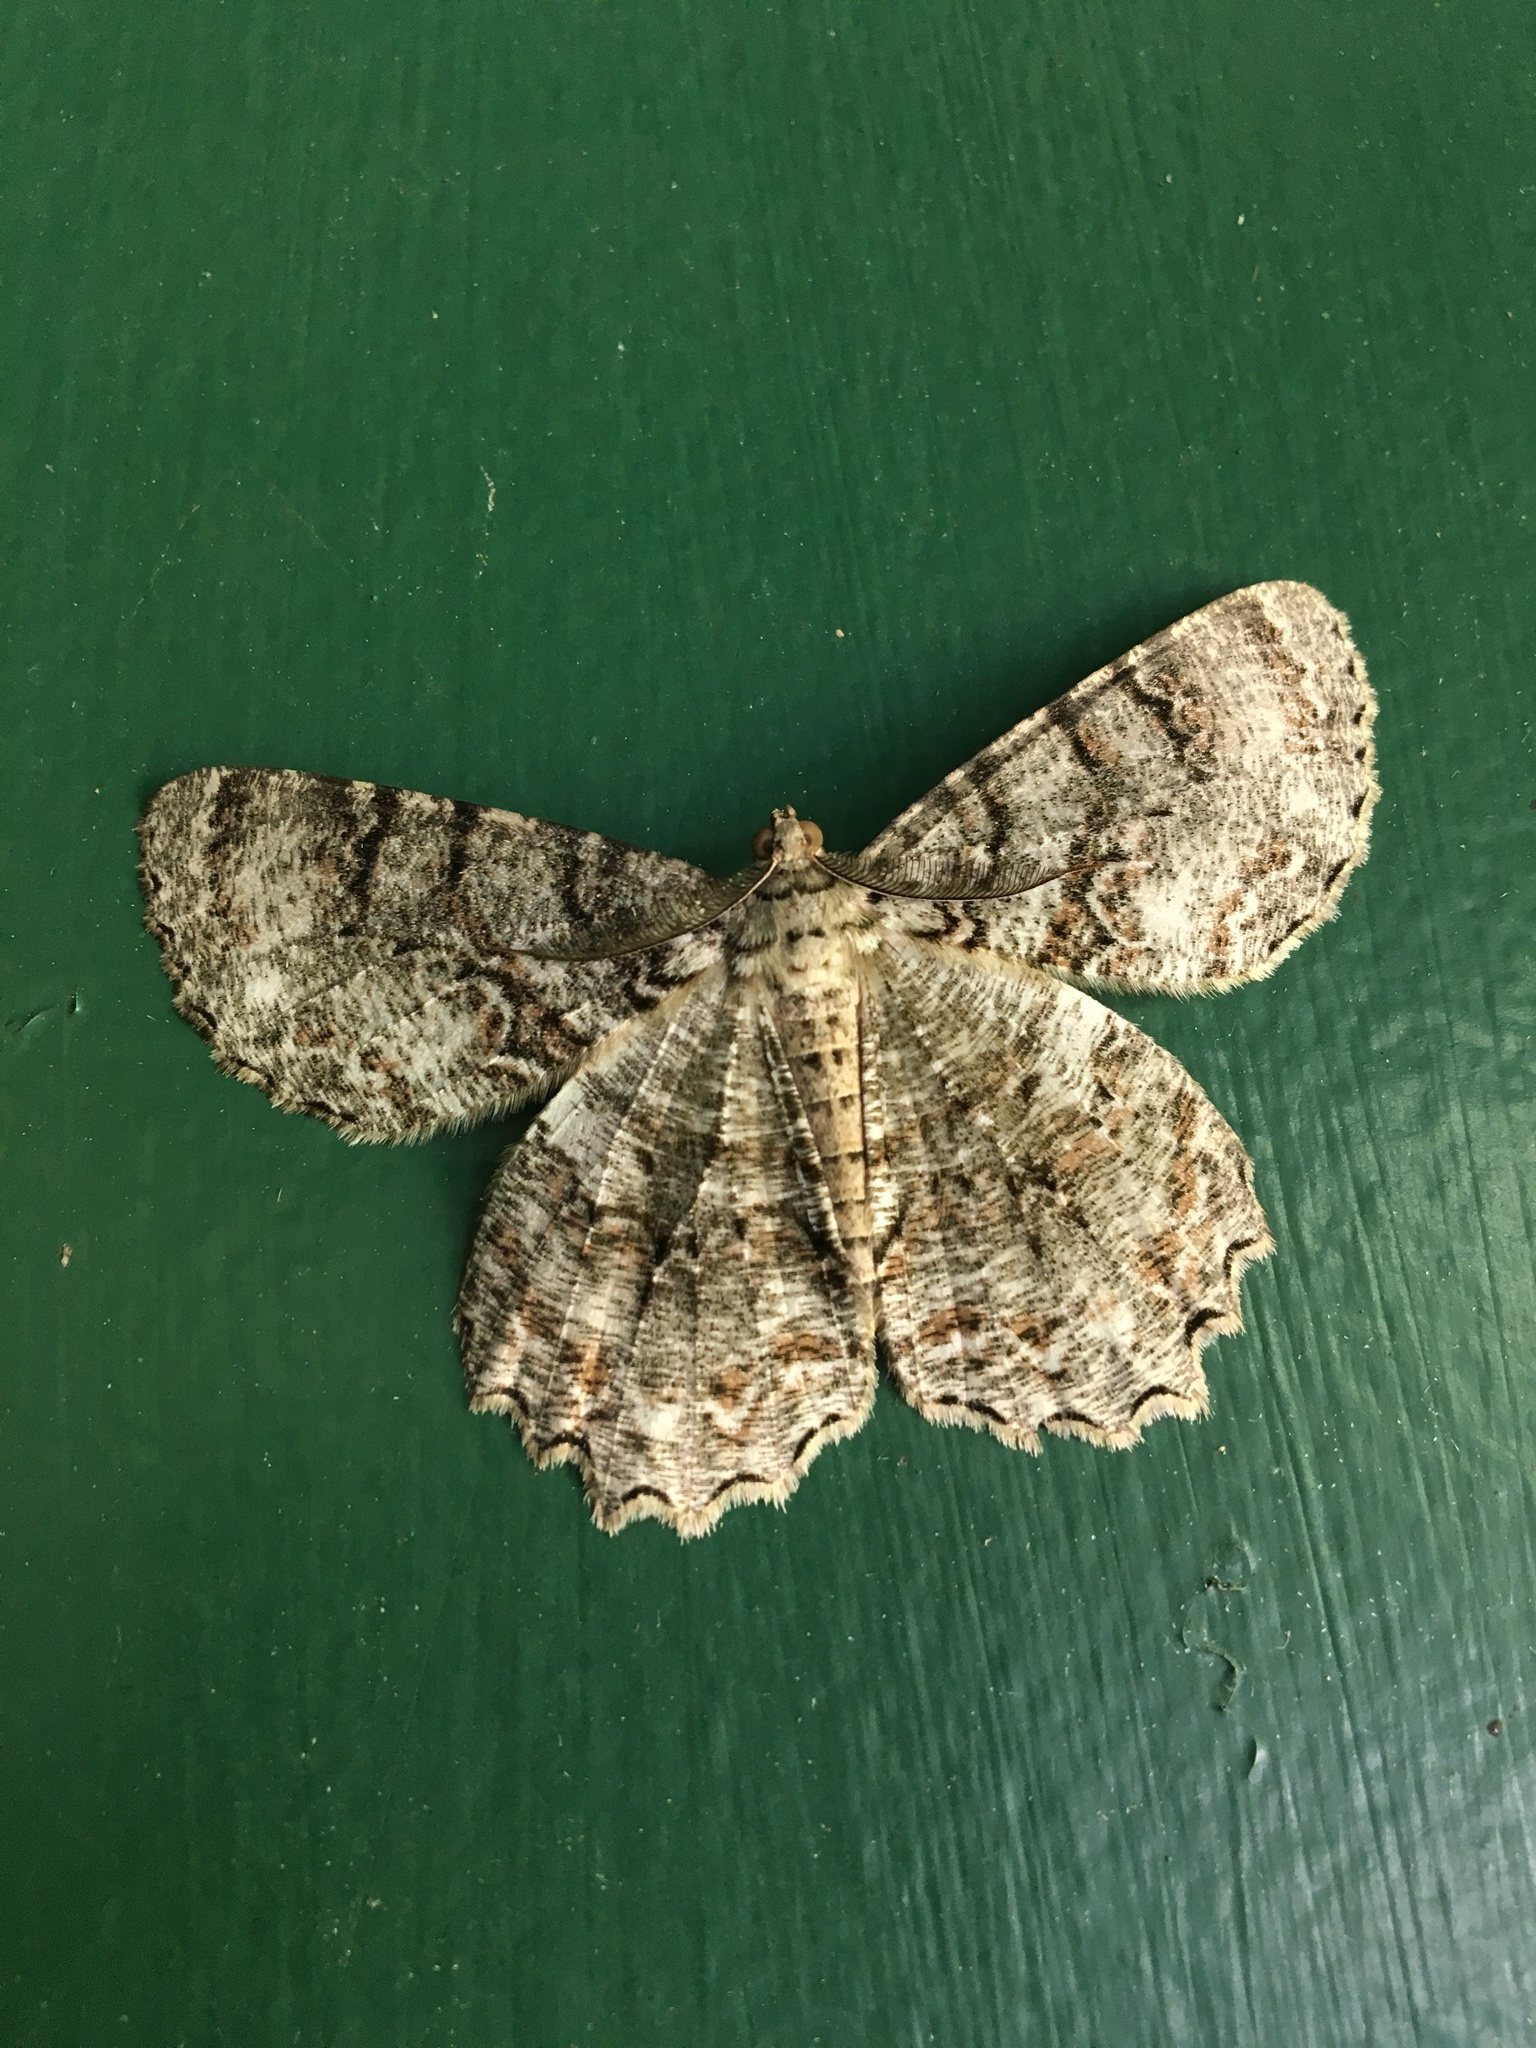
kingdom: Animalia
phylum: Arthropoda
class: Insecta
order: Lepidoptera
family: Geometridae
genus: Epimecis
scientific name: Epimecis hortaria
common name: Tulip-tree beauty
